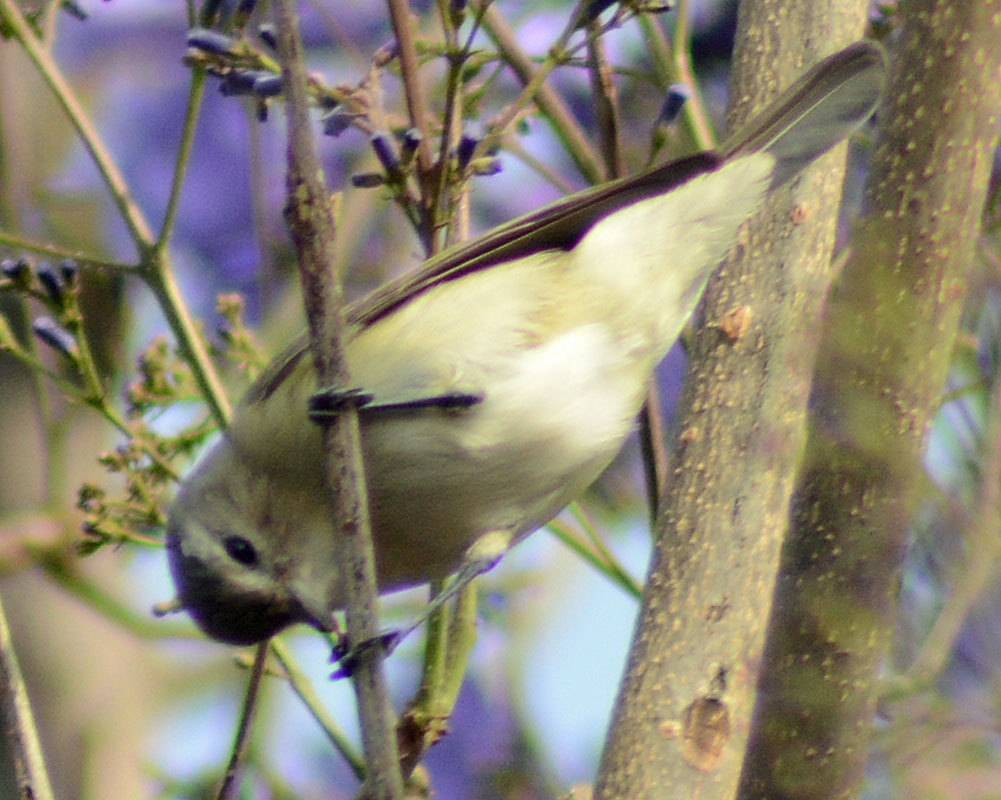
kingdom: Animalia
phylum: Chordata
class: Aves
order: Passeriformes
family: Vireonidae
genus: Vireo
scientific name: Vireo gilvus
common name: Warbling vireo
